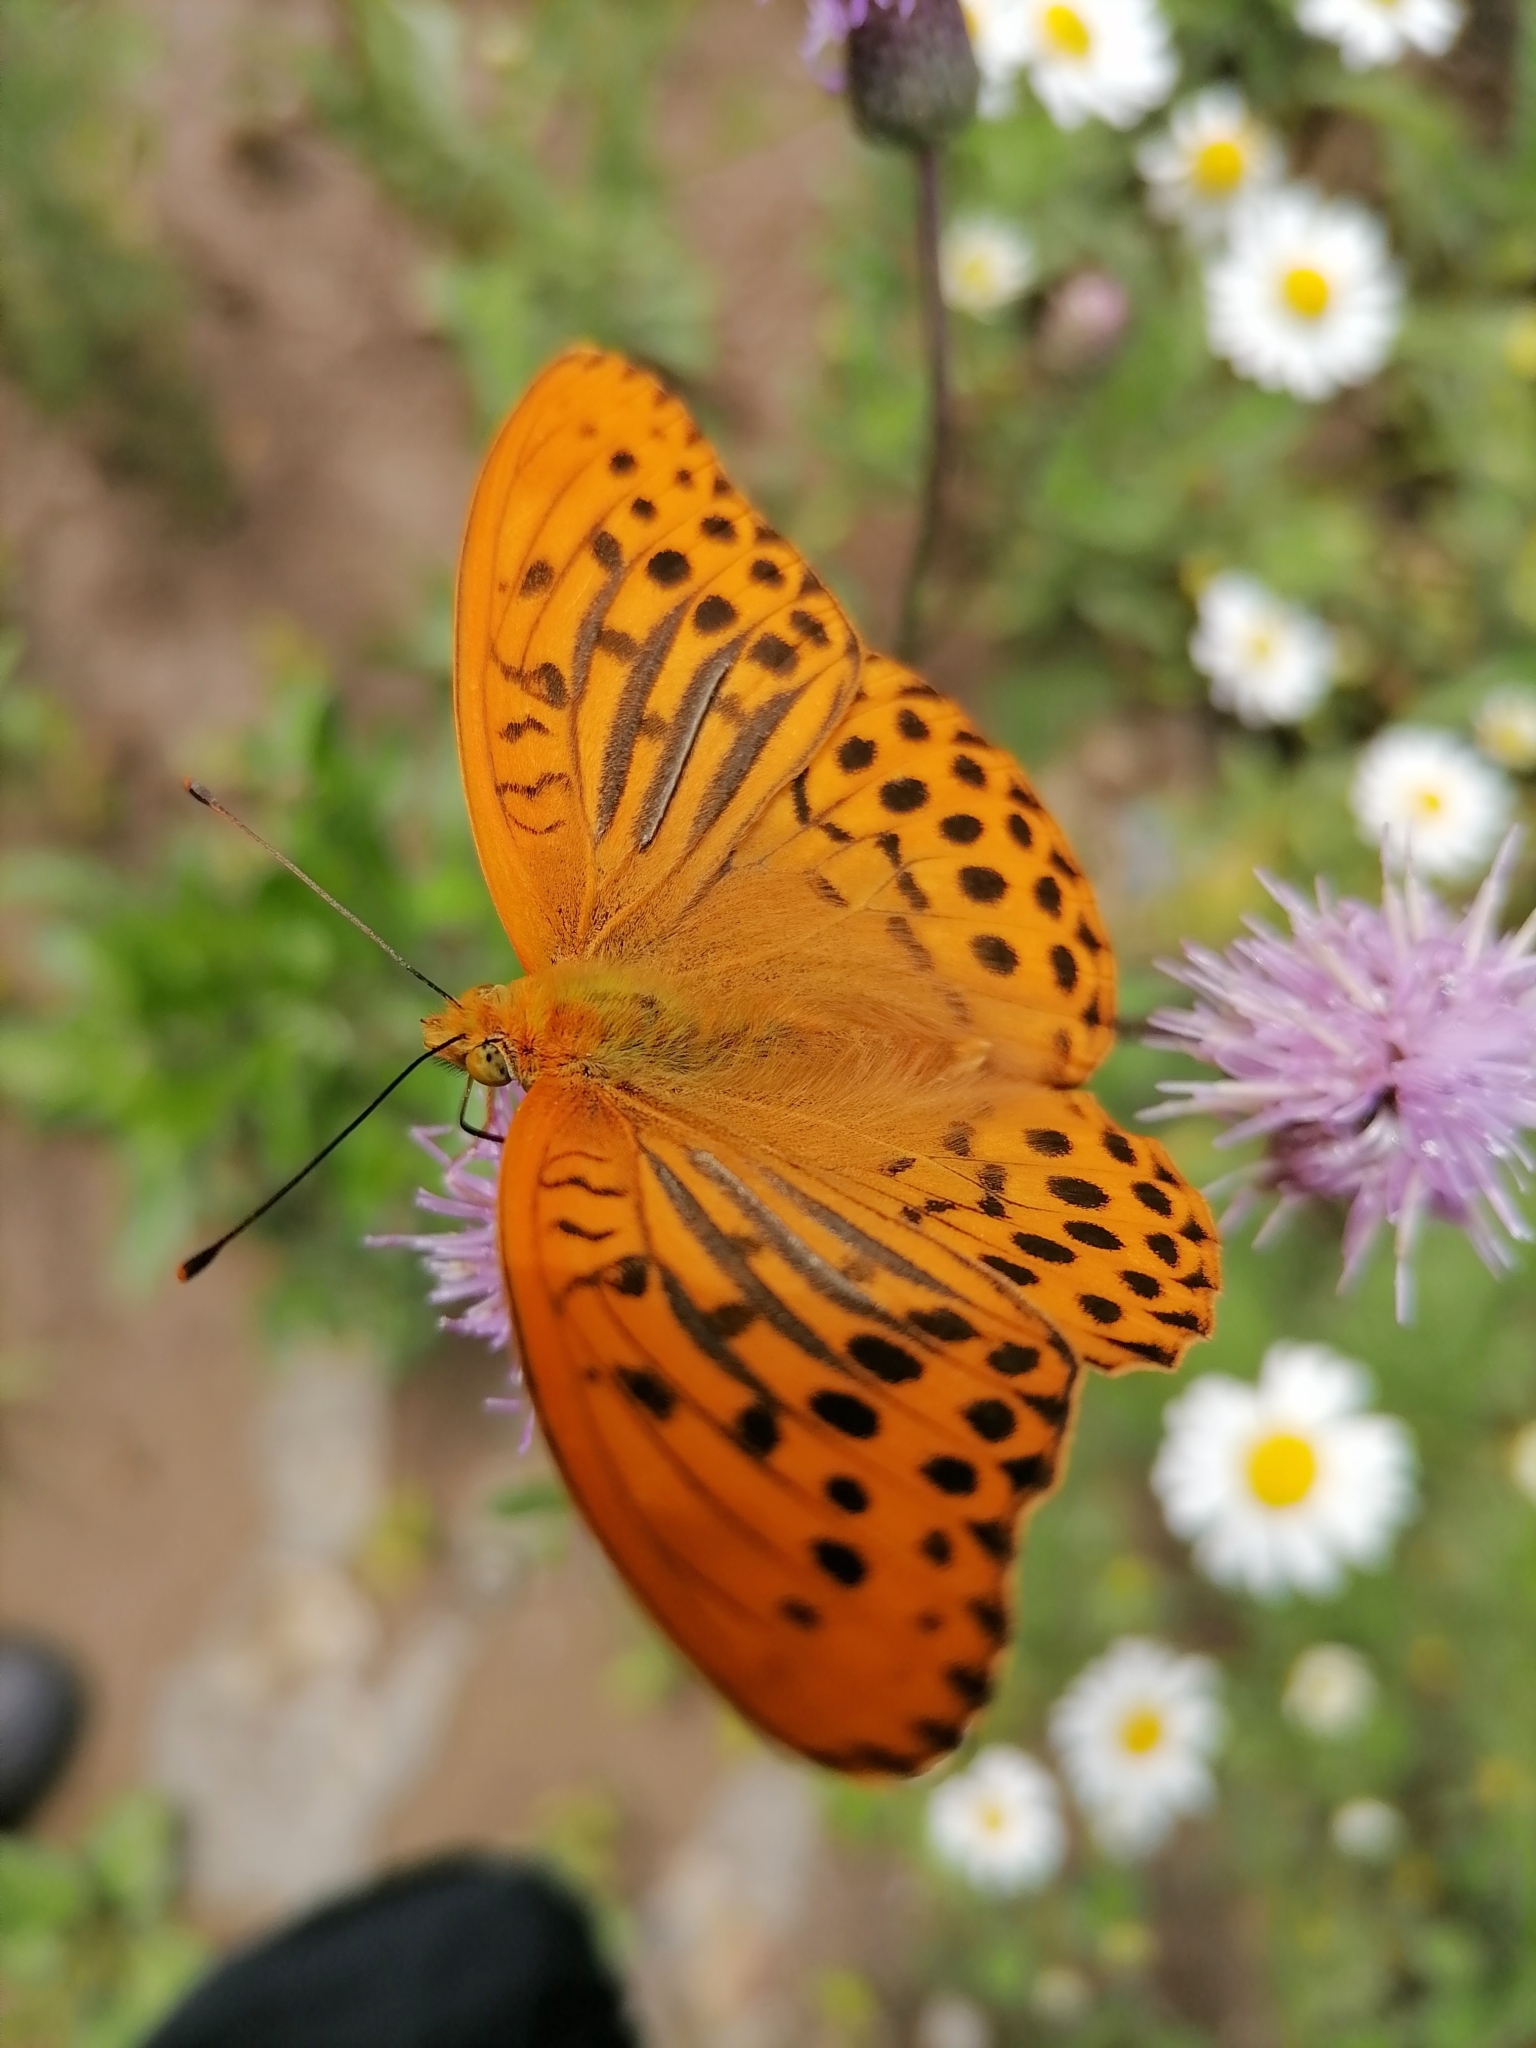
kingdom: Animalia
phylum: Arthropoda
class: Insecta
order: Lepidoptera
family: Nymphalidae
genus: Argynnis
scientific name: Argynnis paphia
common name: Silver-washed fritillary
